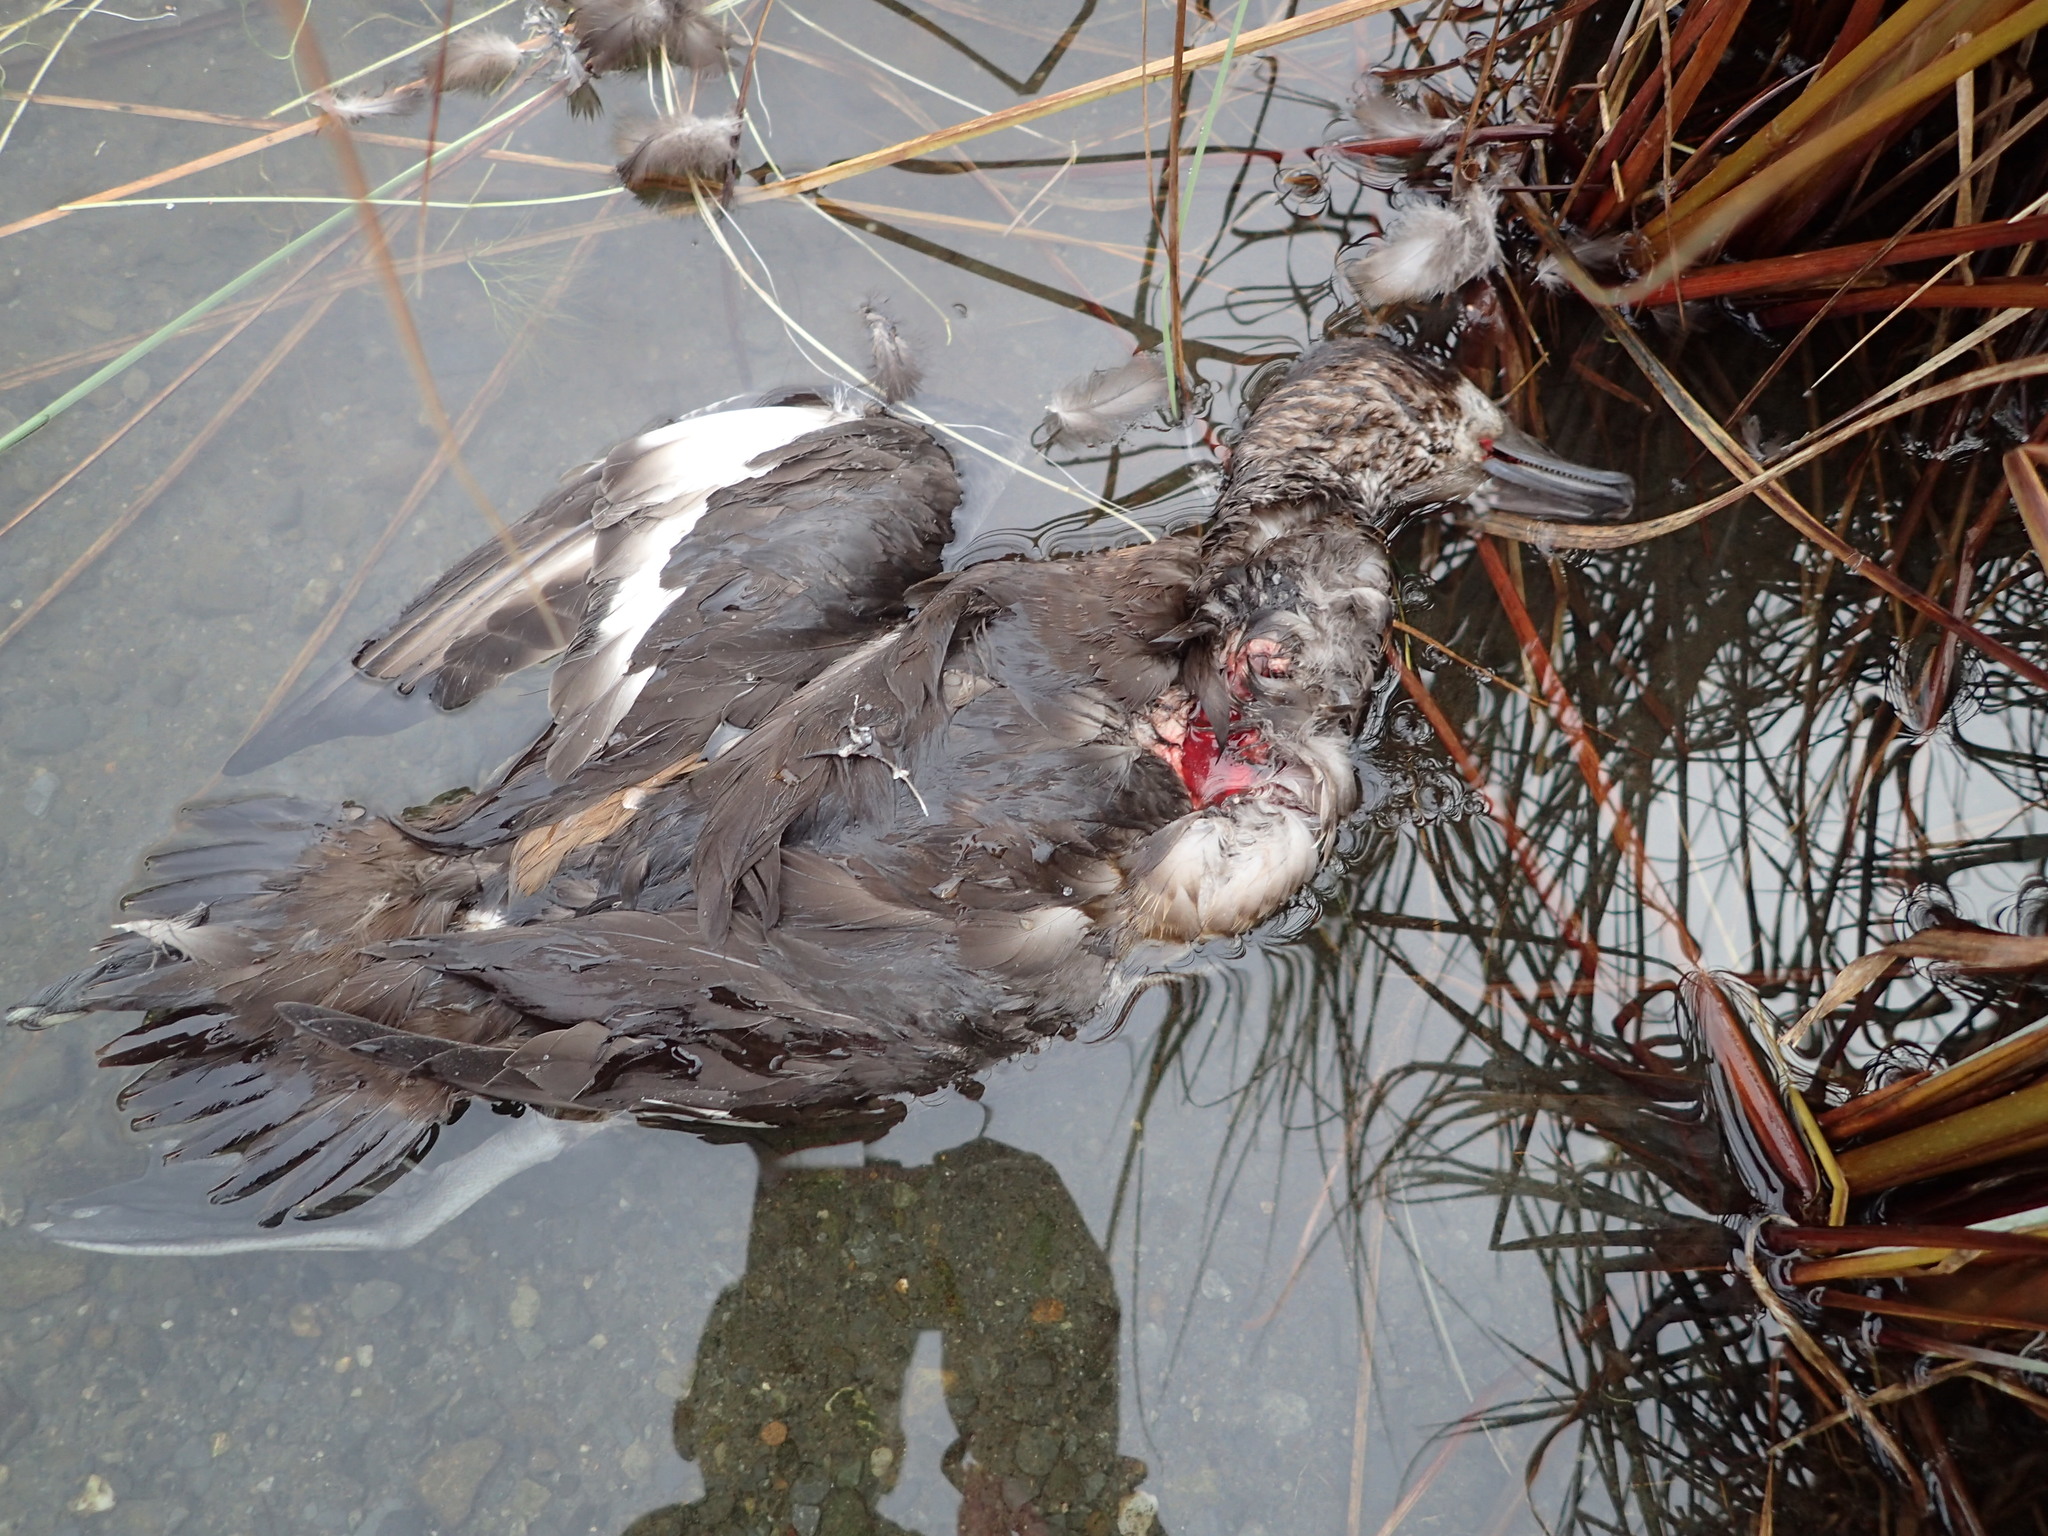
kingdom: Animalia
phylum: Chordata
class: Aves
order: Anseriformes
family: Anatidae
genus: Aythya
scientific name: Aythya marila
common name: Greater scaup
